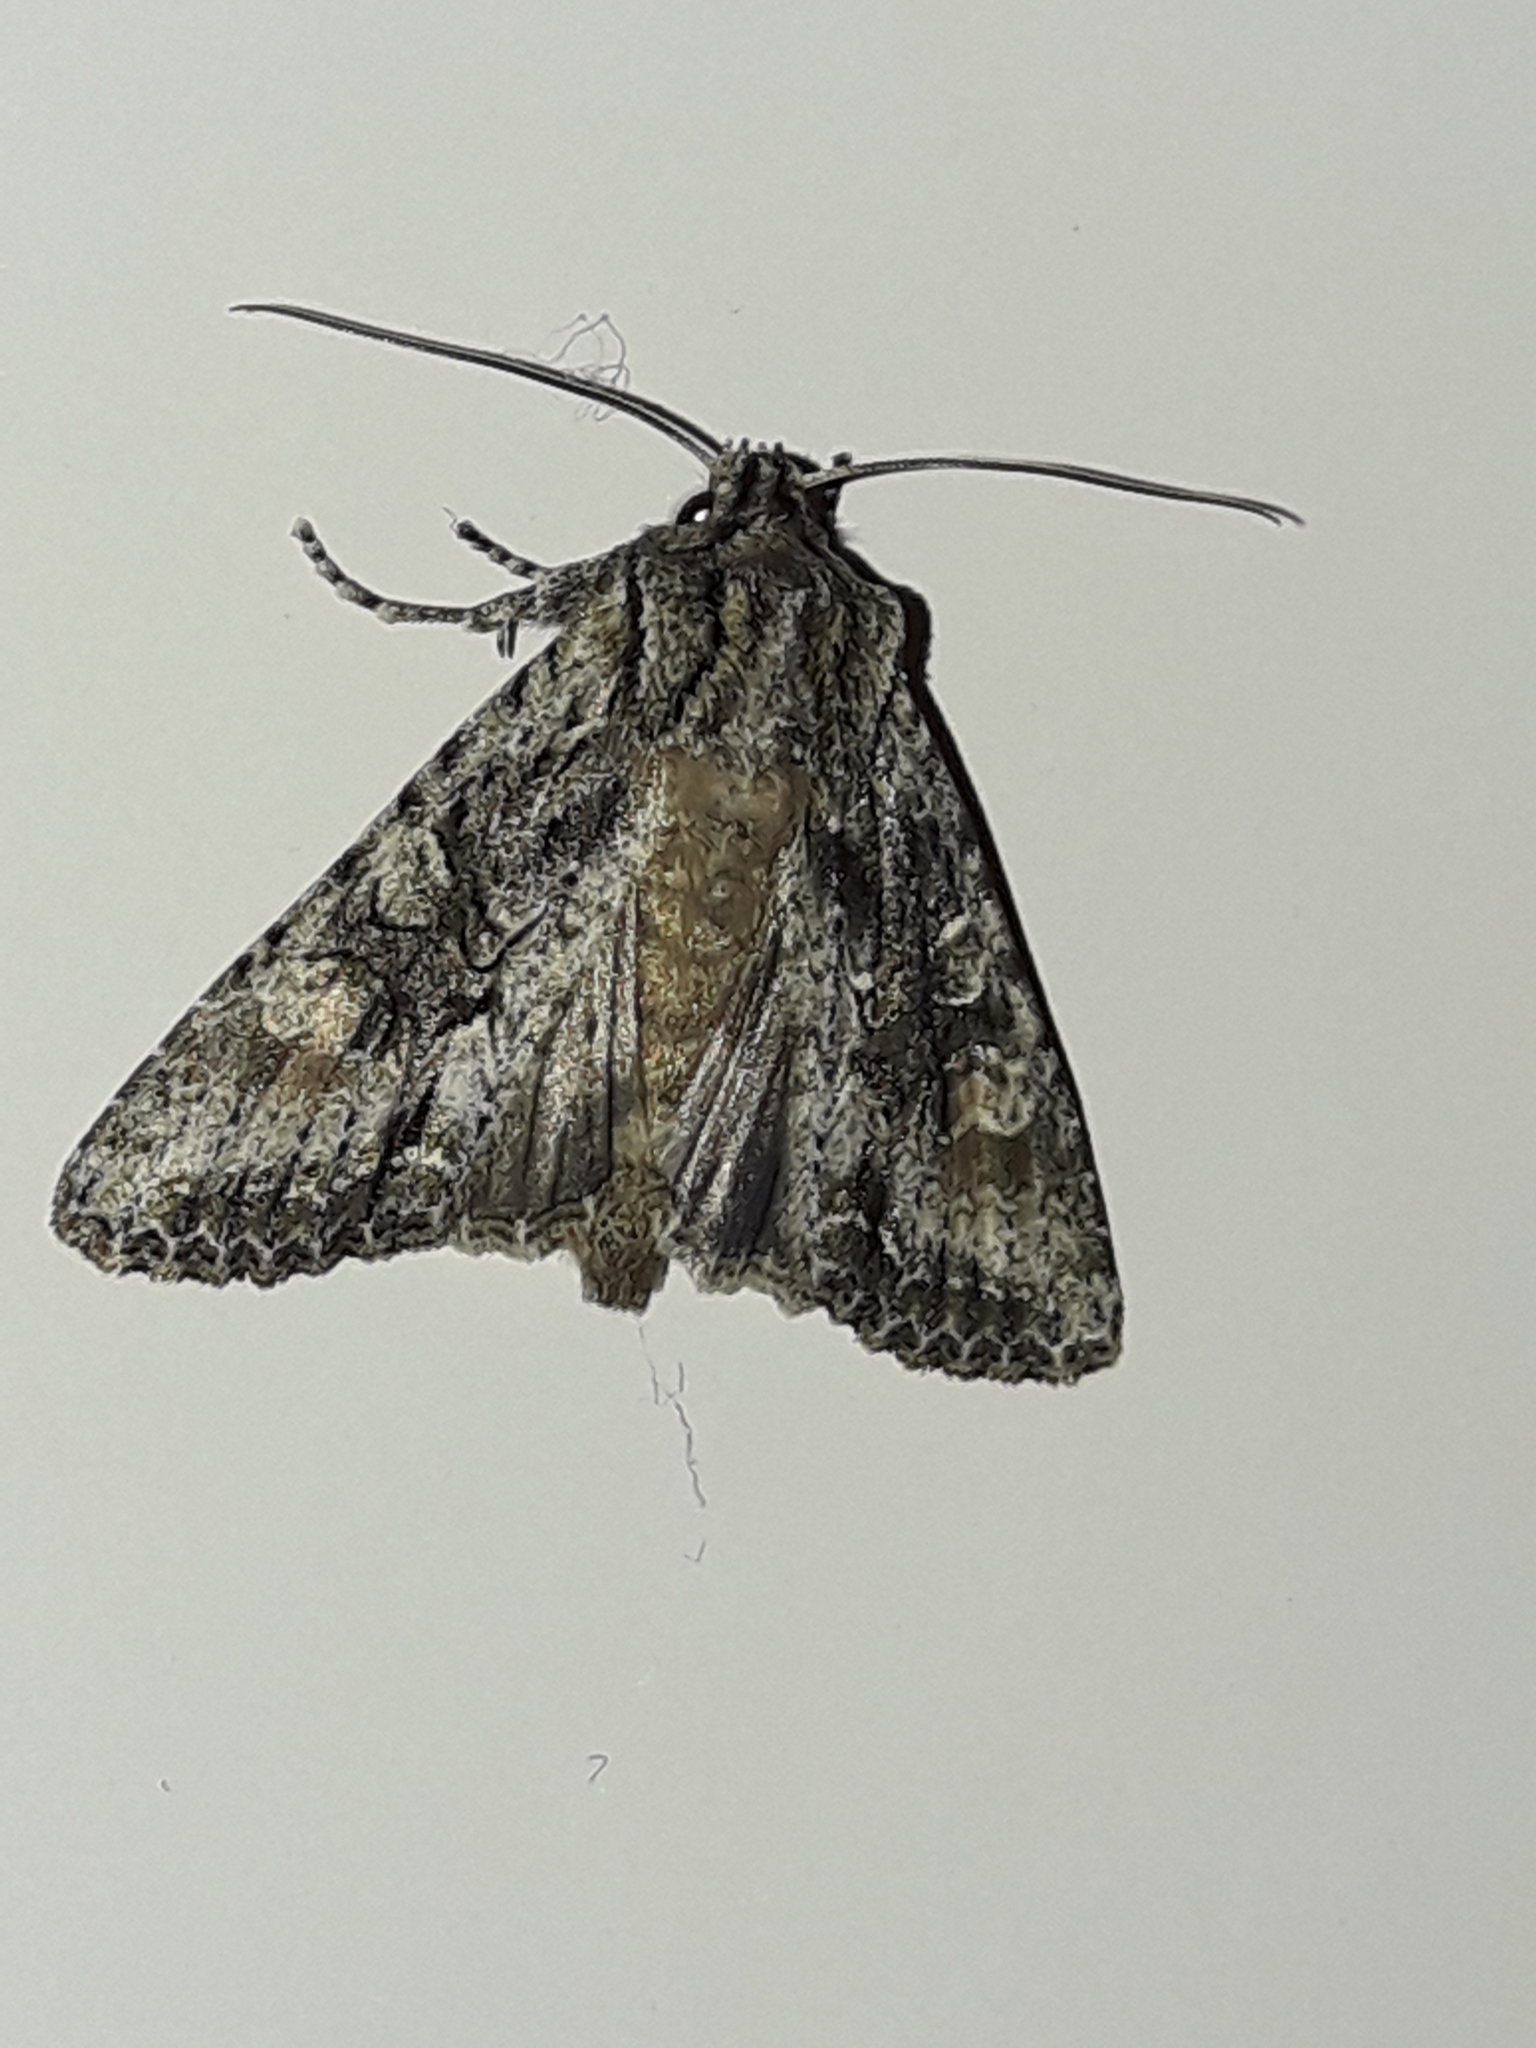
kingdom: Animalia
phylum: Arthropoda
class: Insecta
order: Lepidoptera
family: Noctuidae
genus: Ichneutica
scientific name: Ichneutica mutans
